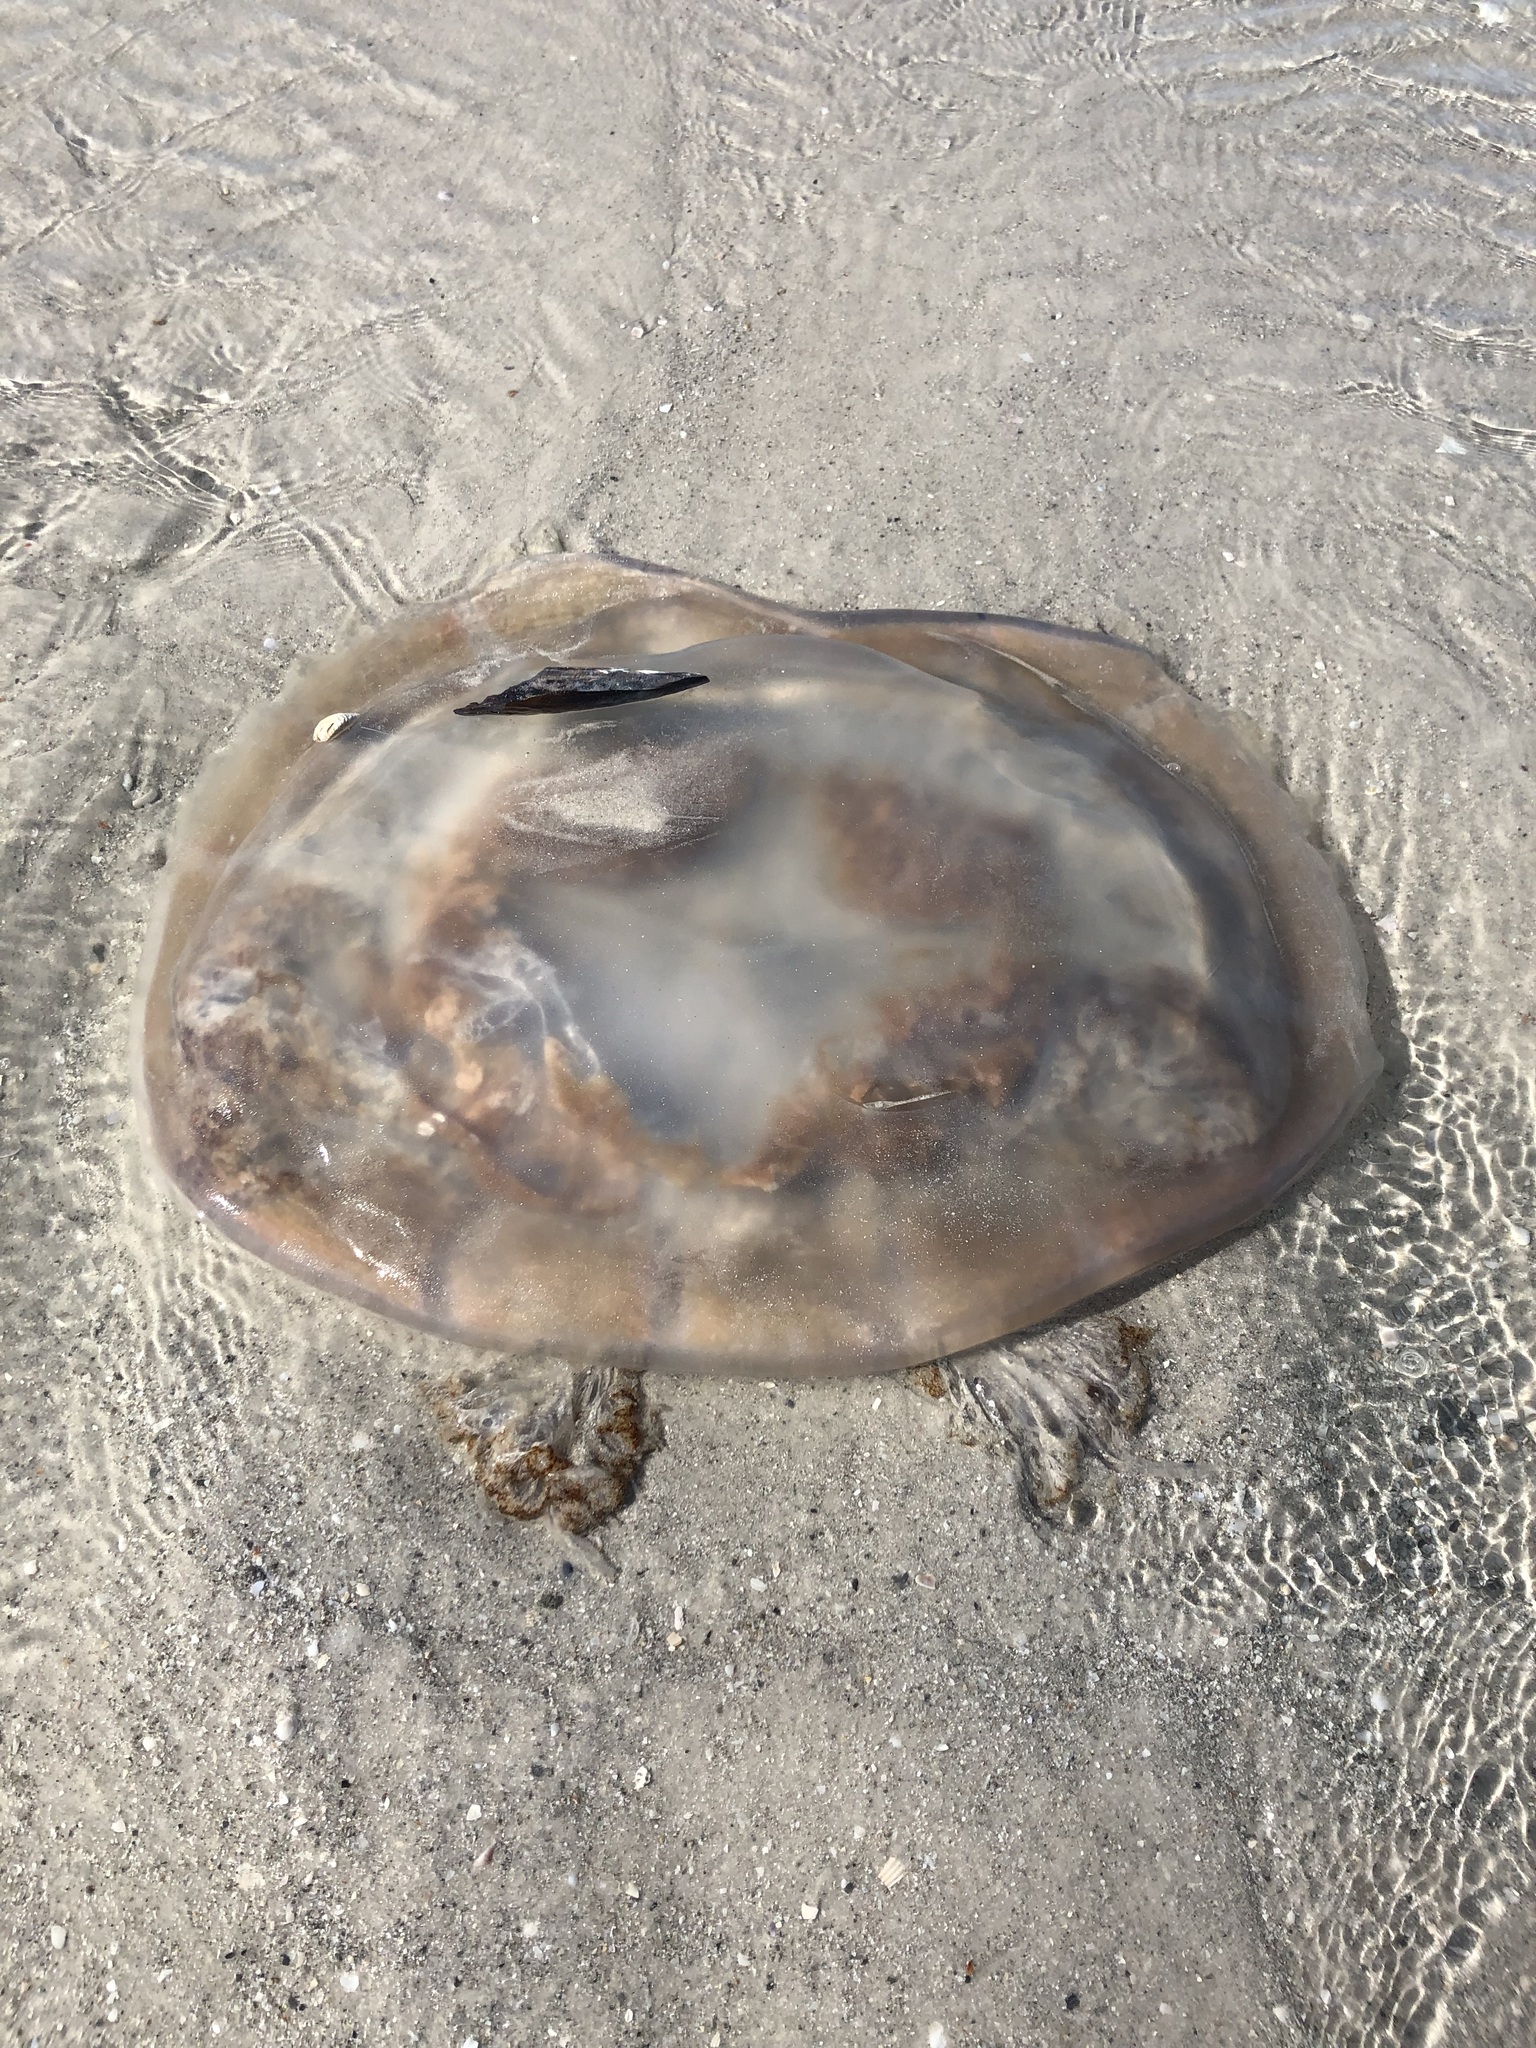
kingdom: Animalia
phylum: Cnidaria
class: Scyphozoa
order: Rhizostomeae
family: Rhizostomatidae
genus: Rhopilema
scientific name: Rhopilema verrilli
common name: Mushroom cap jellyfish
